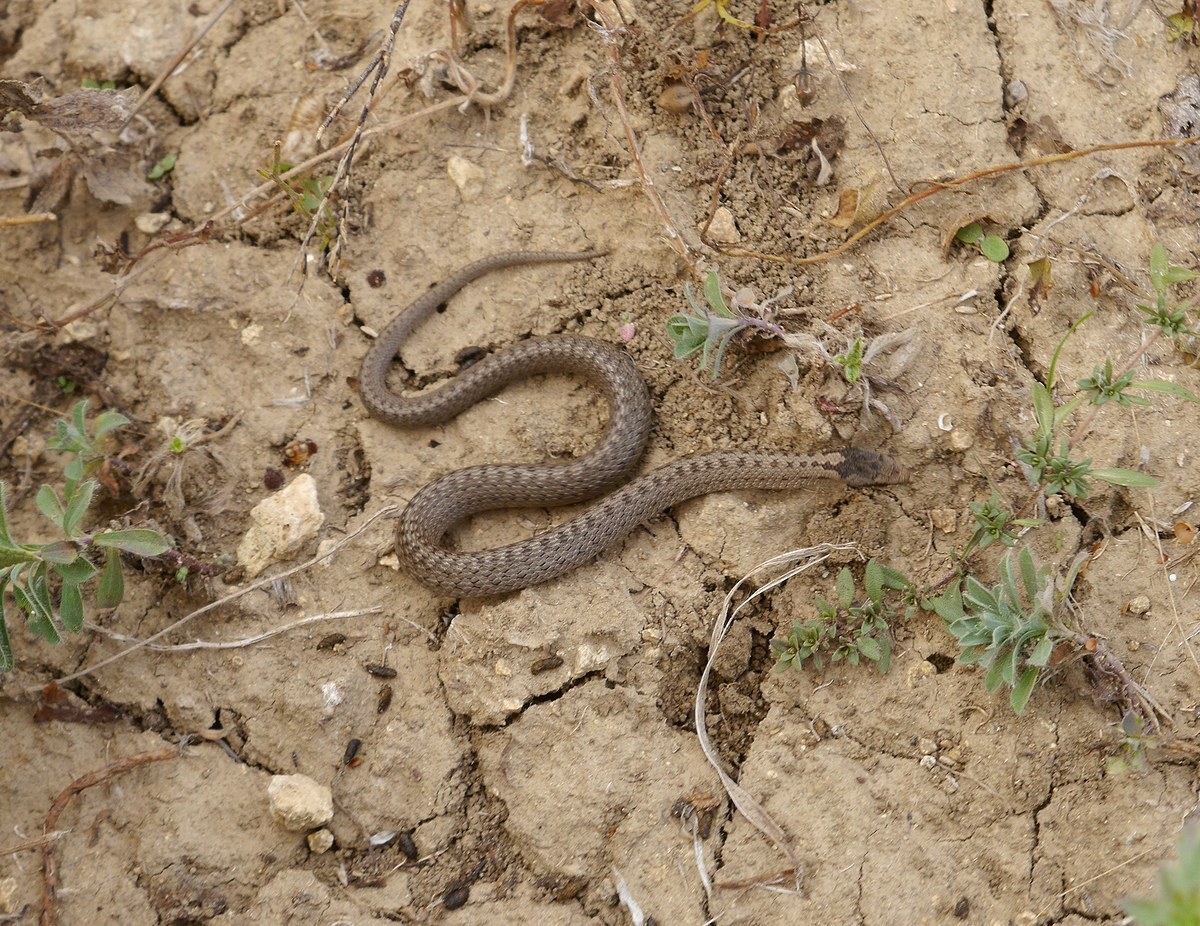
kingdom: Animalia
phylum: Chordata
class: Squamata
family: Colubridae
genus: Coronella
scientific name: Coronella austriaca
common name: Smooth snake
